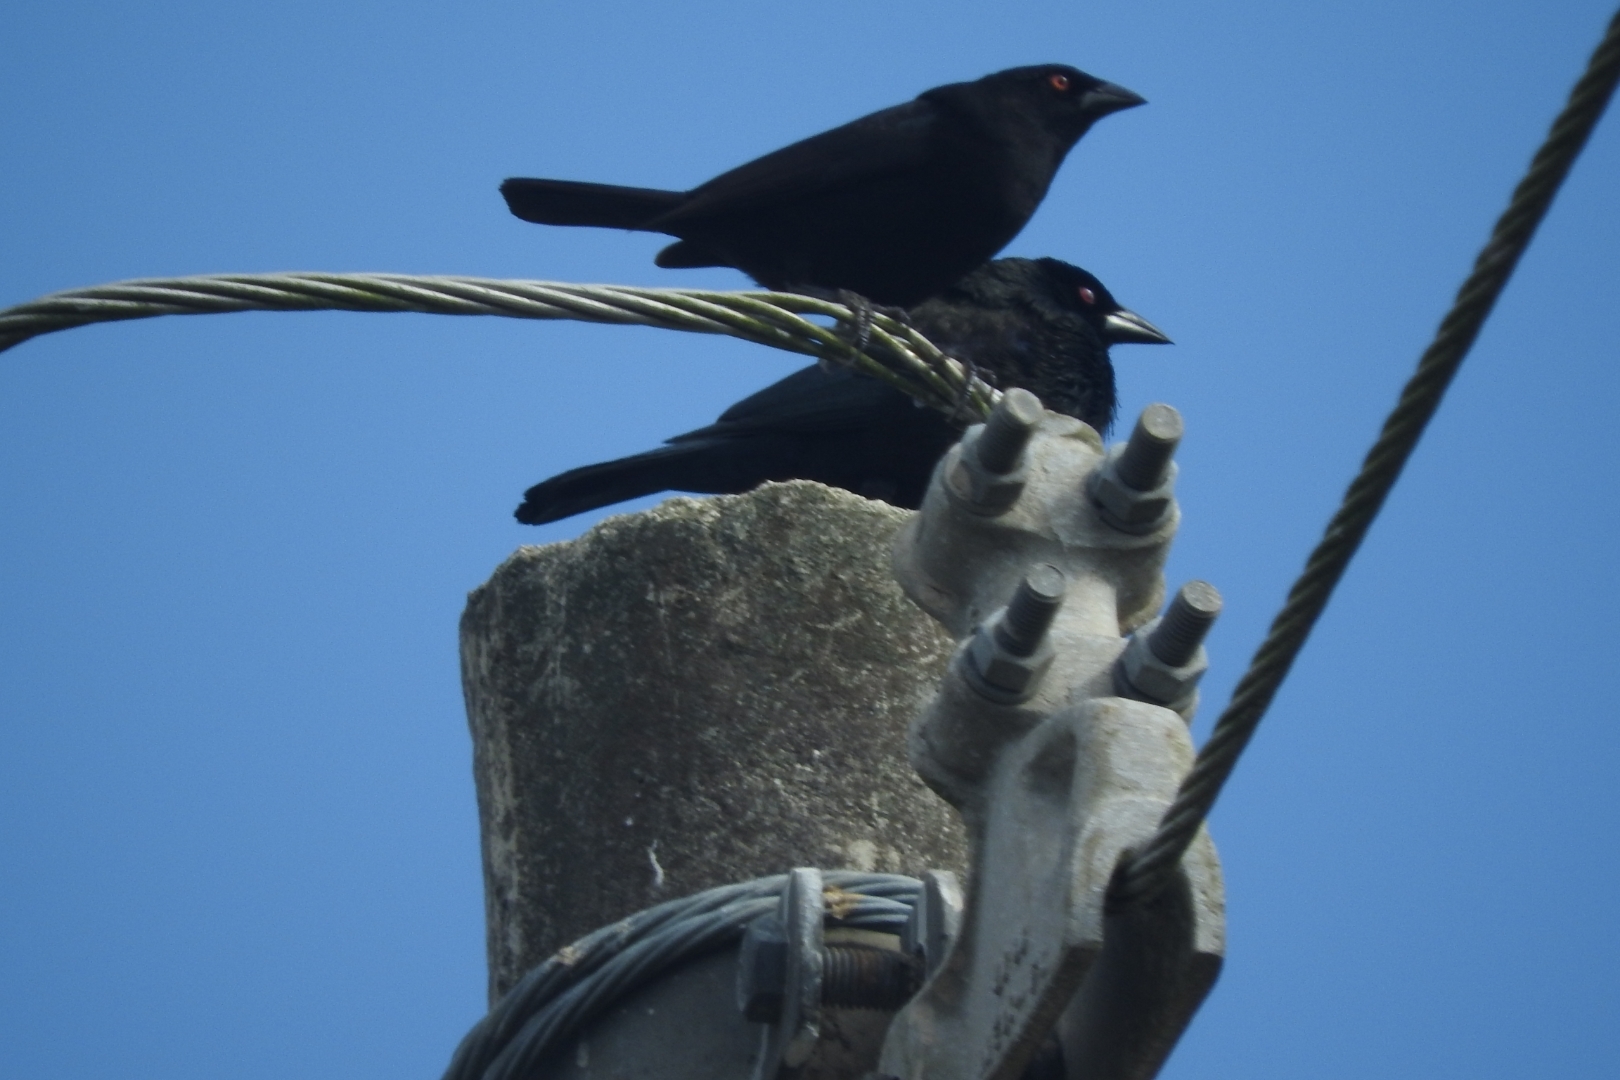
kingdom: Animalia
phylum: Chordata
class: Aves
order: Passeriformes
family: Icteridae
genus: Molothrus
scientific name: Molothrus aeneus
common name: Bronzed cowbird
